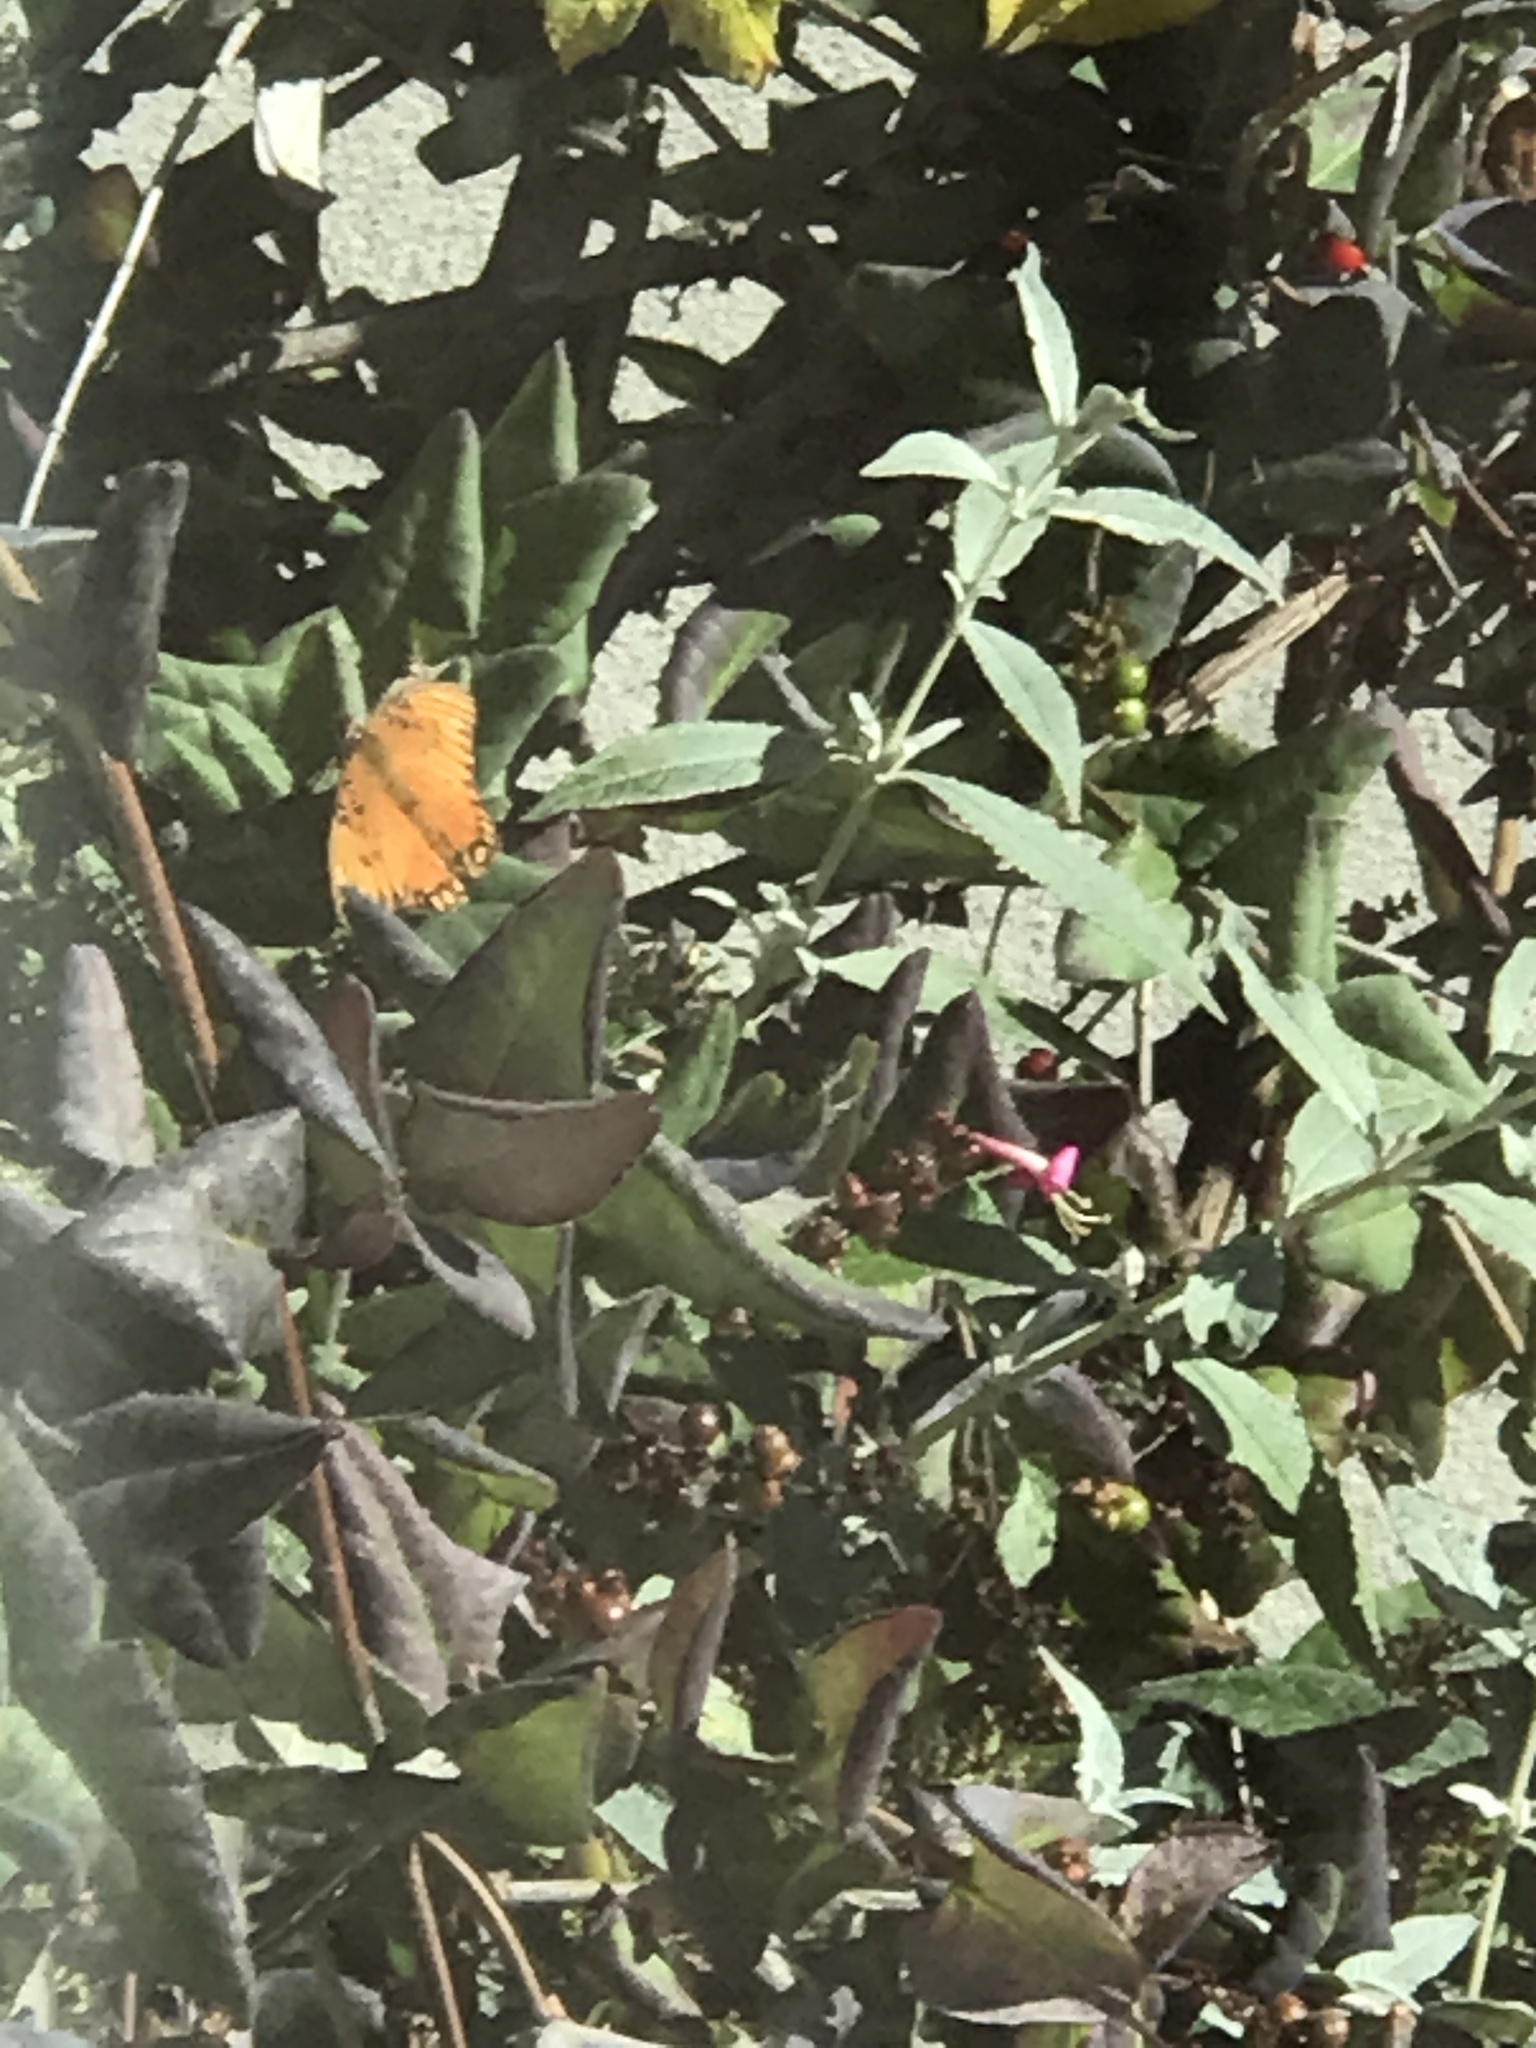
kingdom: Animalia
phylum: Arthropoda
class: Insecta
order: Lepidoptera
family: Nymphalidae
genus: Dione
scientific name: Dione vanillae
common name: Gulf fritillary
